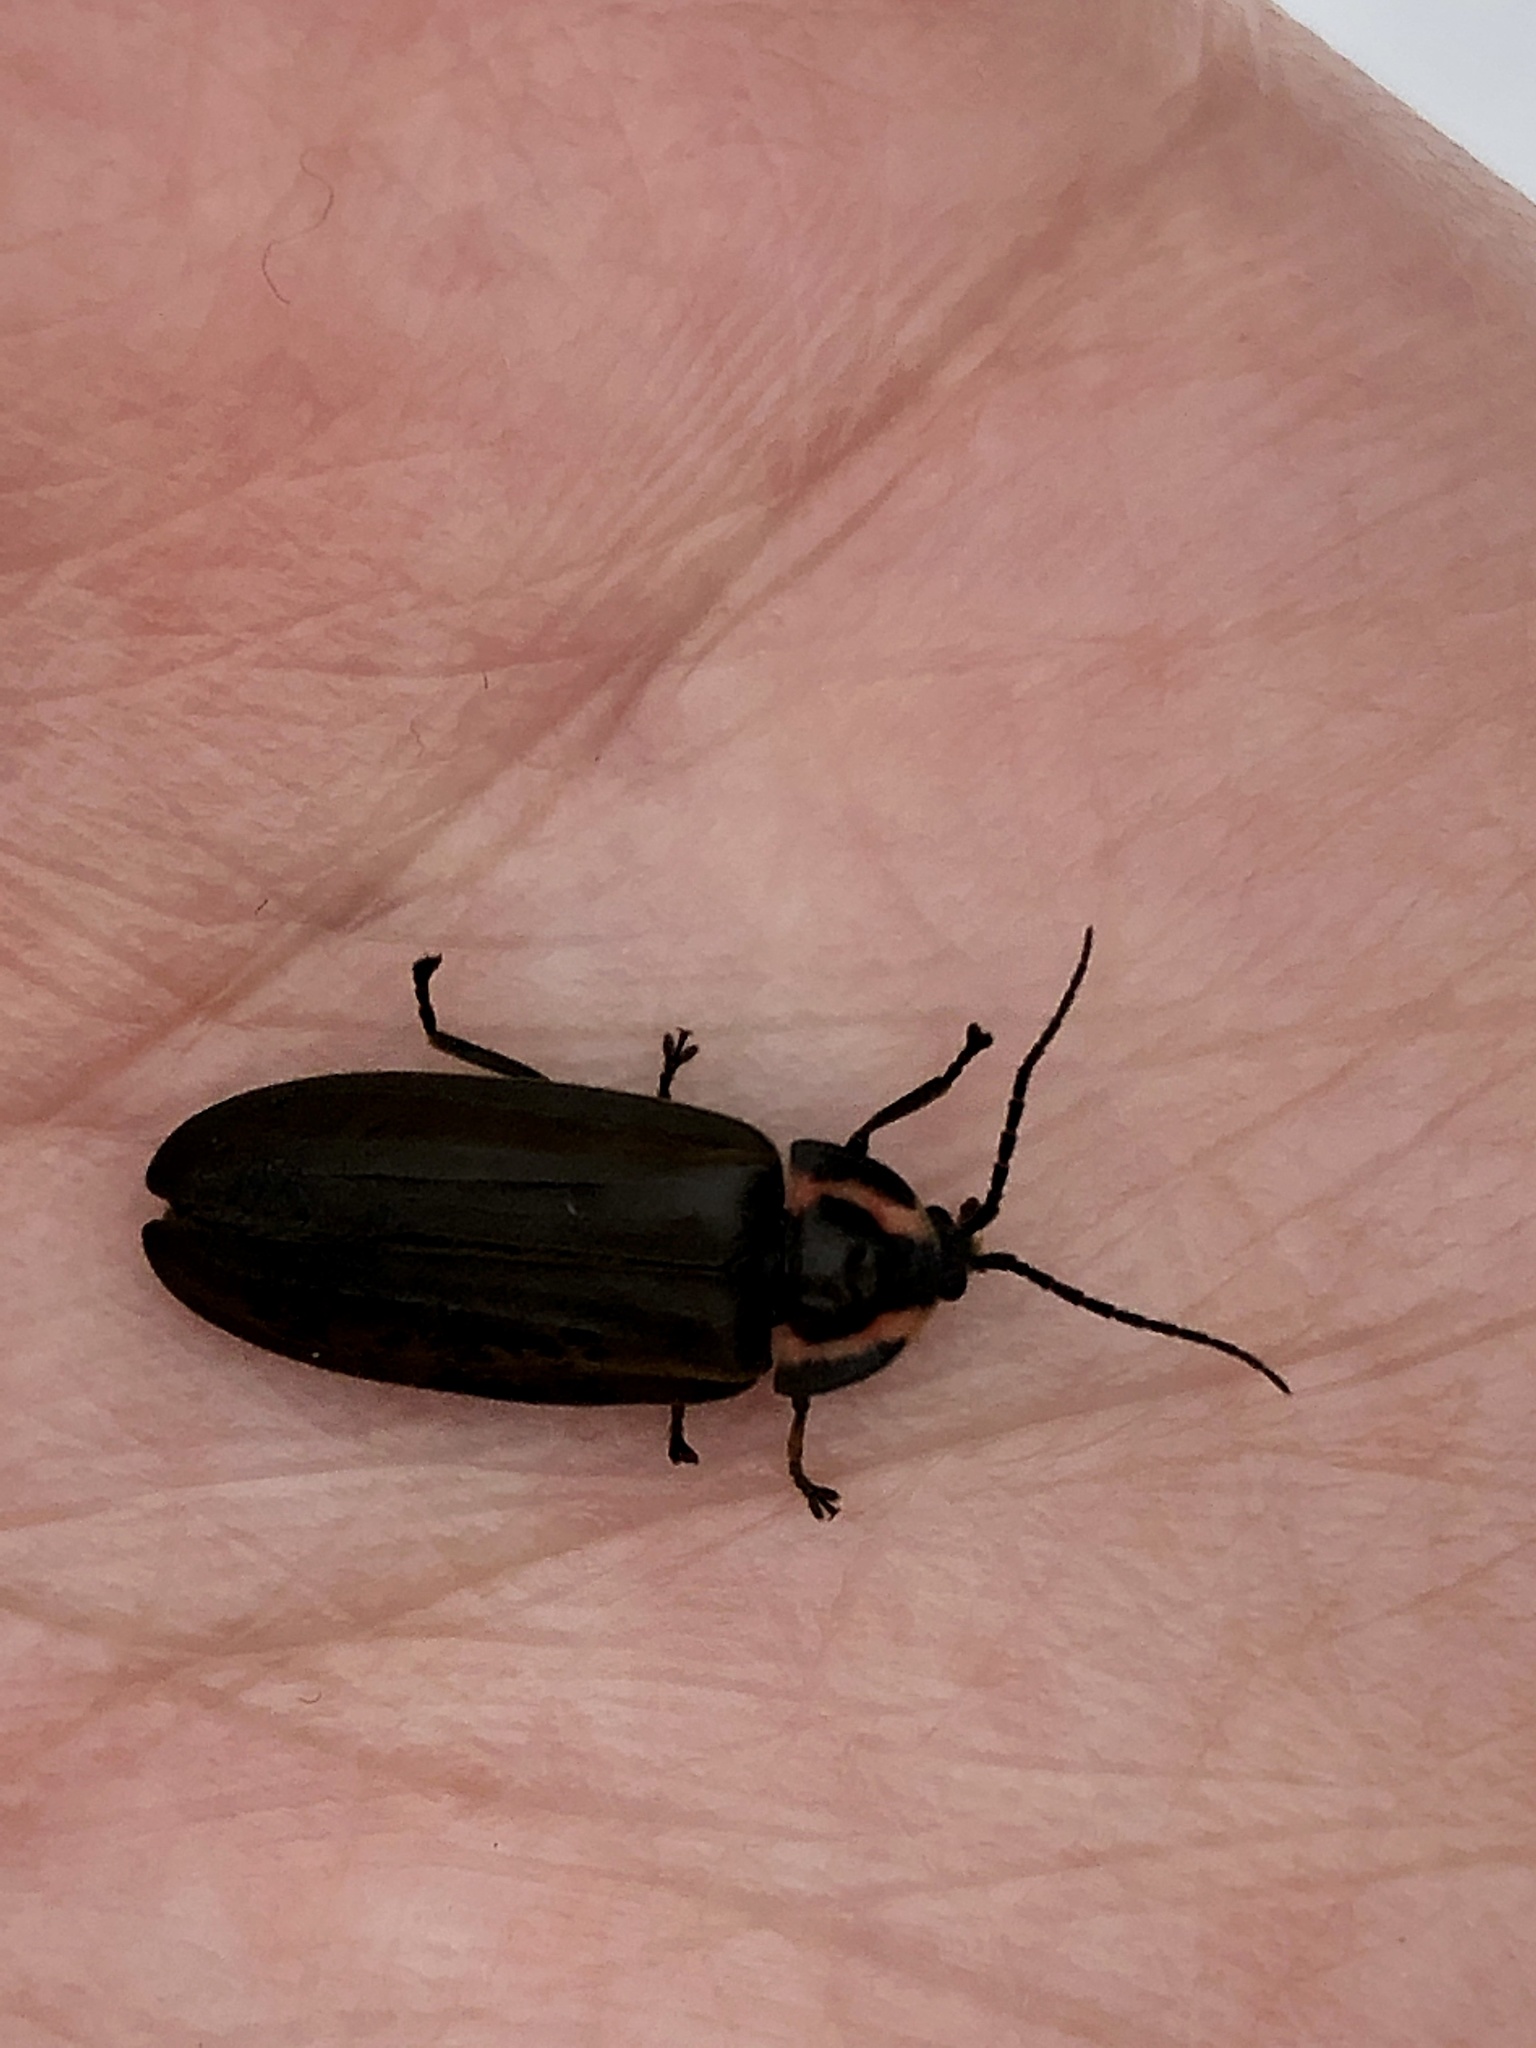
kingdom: Animalia
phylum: Arthropoda
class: Insecta
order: Coleoptera
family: Lampyridae
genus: Photinus
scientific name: Photinus corrusca
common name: Winter firefly
